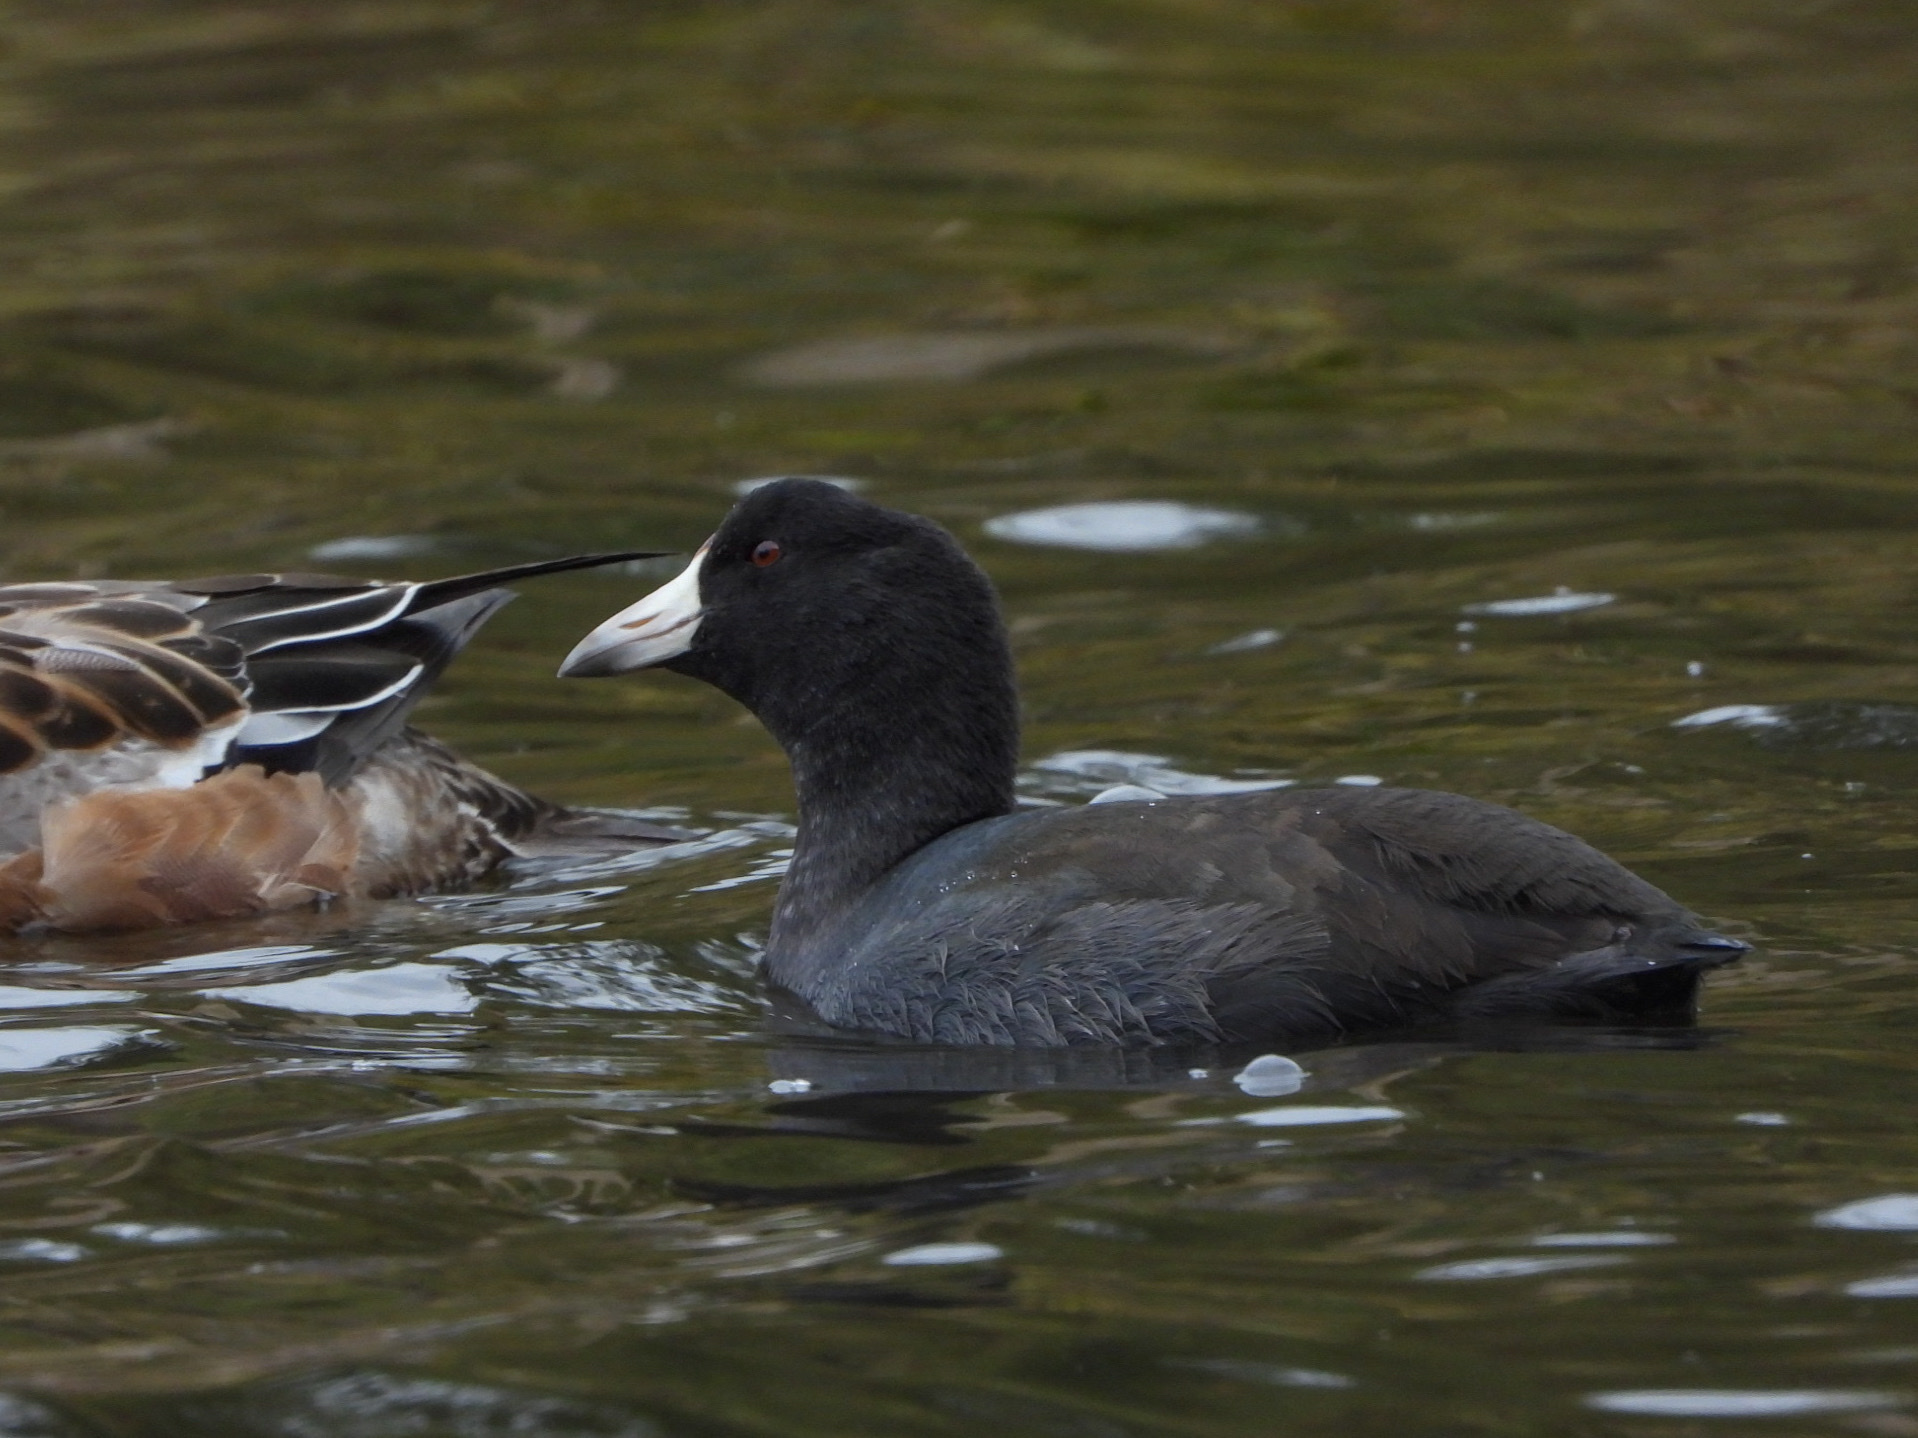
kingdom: Animalia
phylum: Chordata
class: Aves
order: Gruiformes
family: Rallidae
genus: Fulica
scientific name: Fulica americana
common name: American coot
